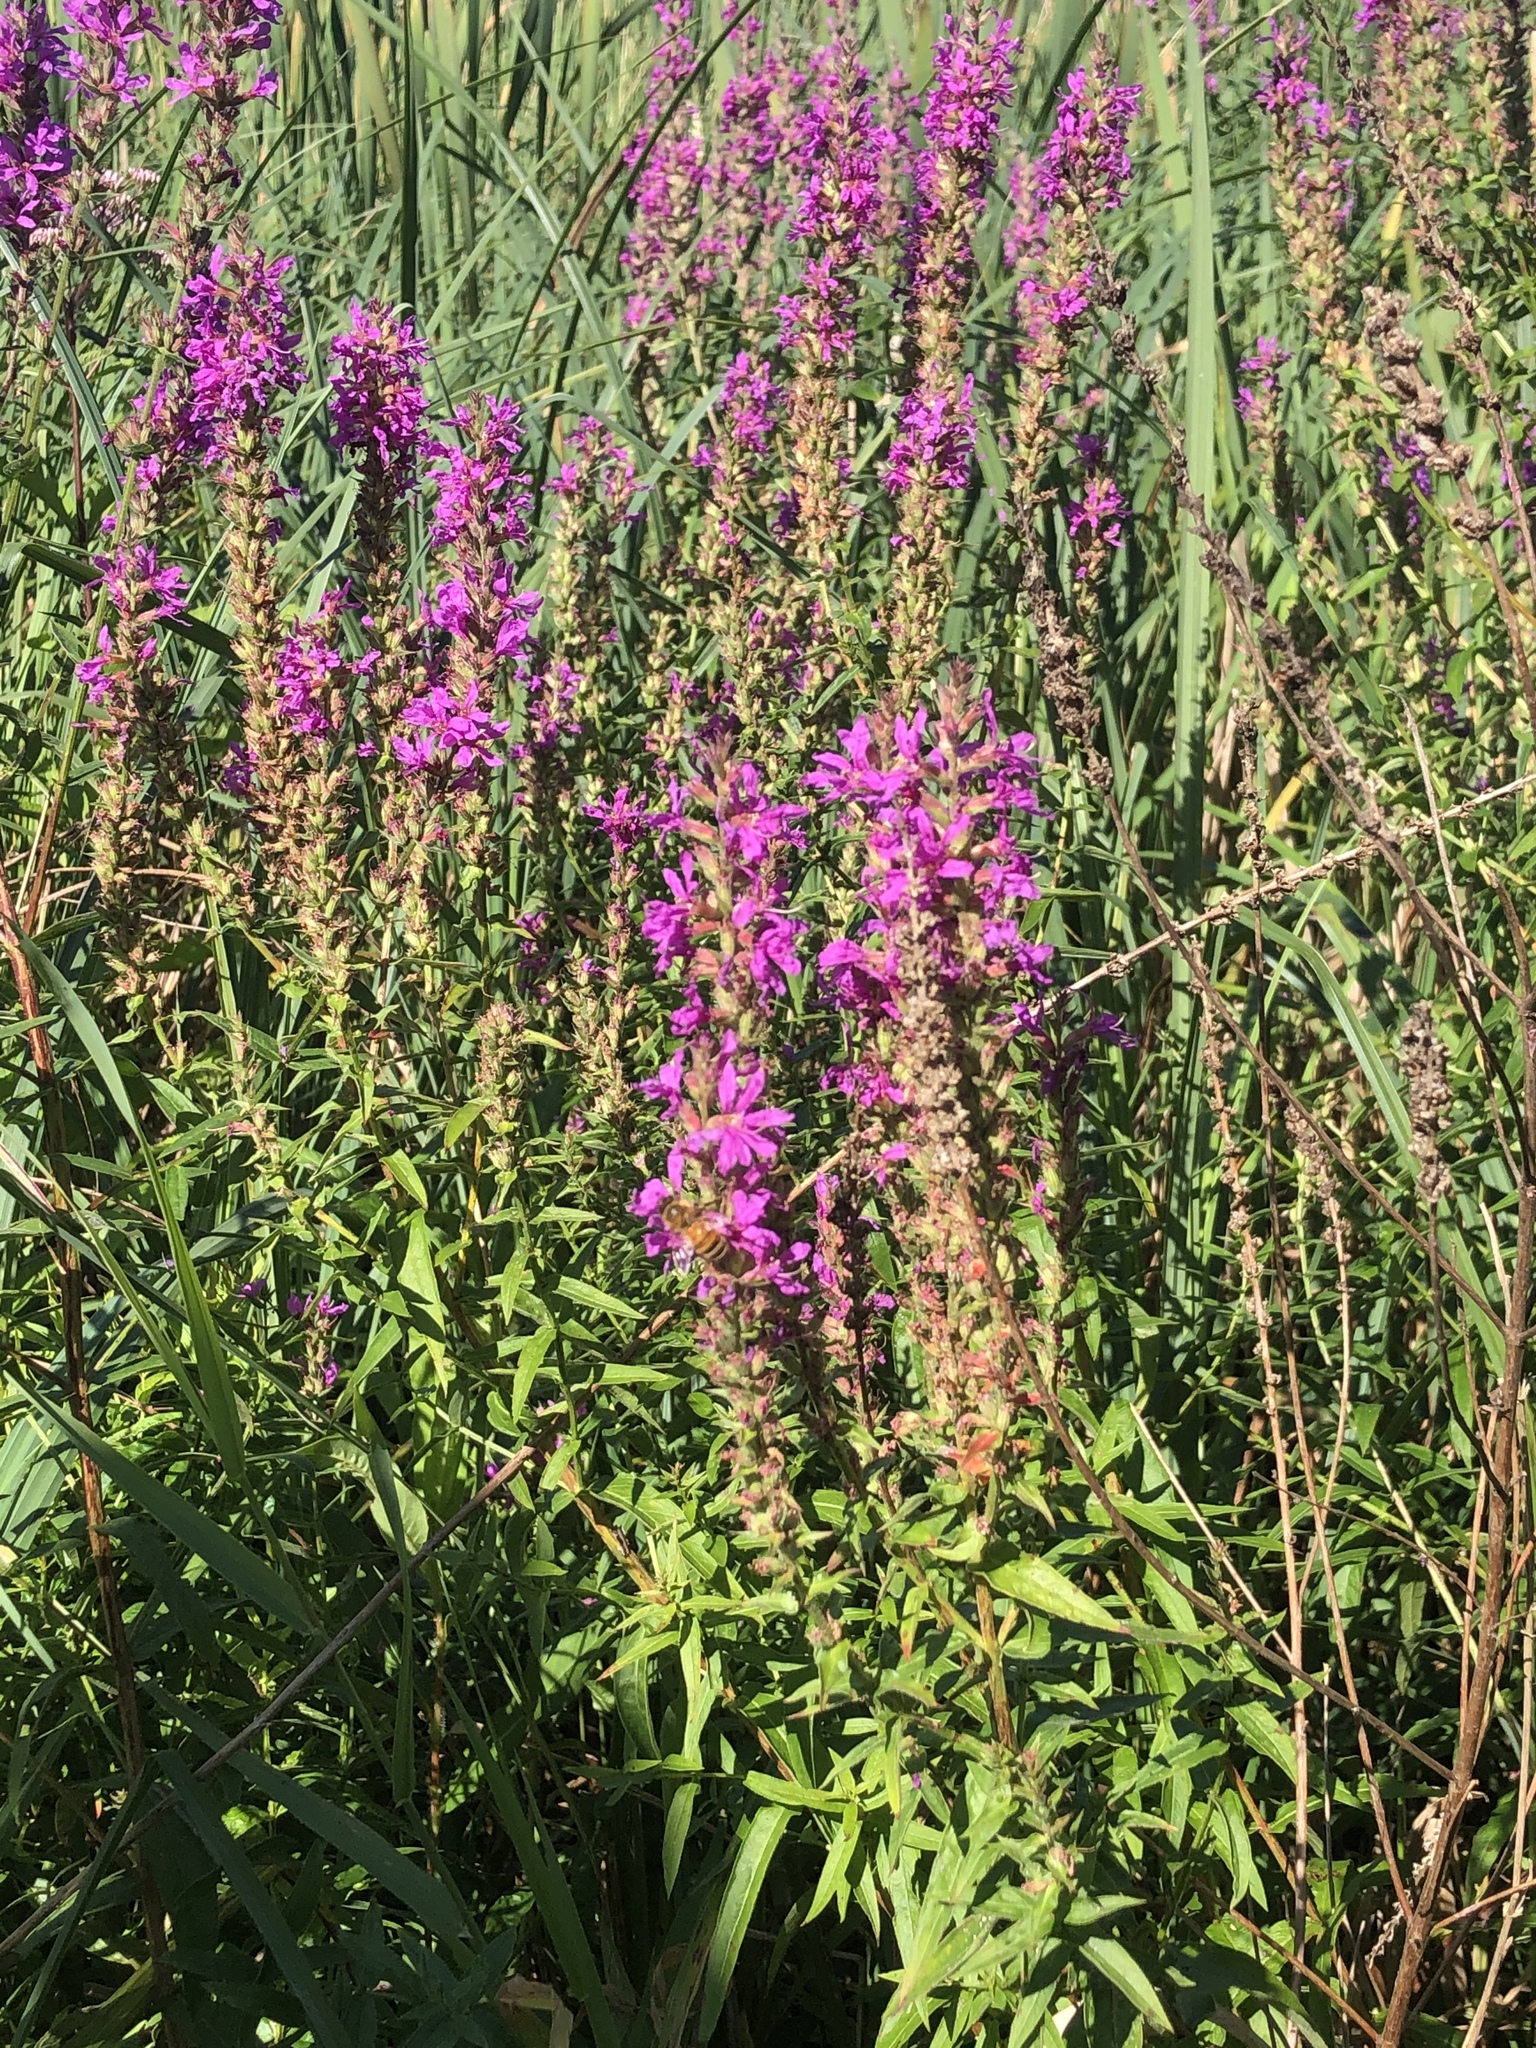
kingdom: Plantae
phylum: Tracheophyta
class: Magnoliopsida
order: Myrtales
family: Lythraceae
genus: Lythrum
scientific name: Lythrum salicaria
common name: Purple loosestrife
